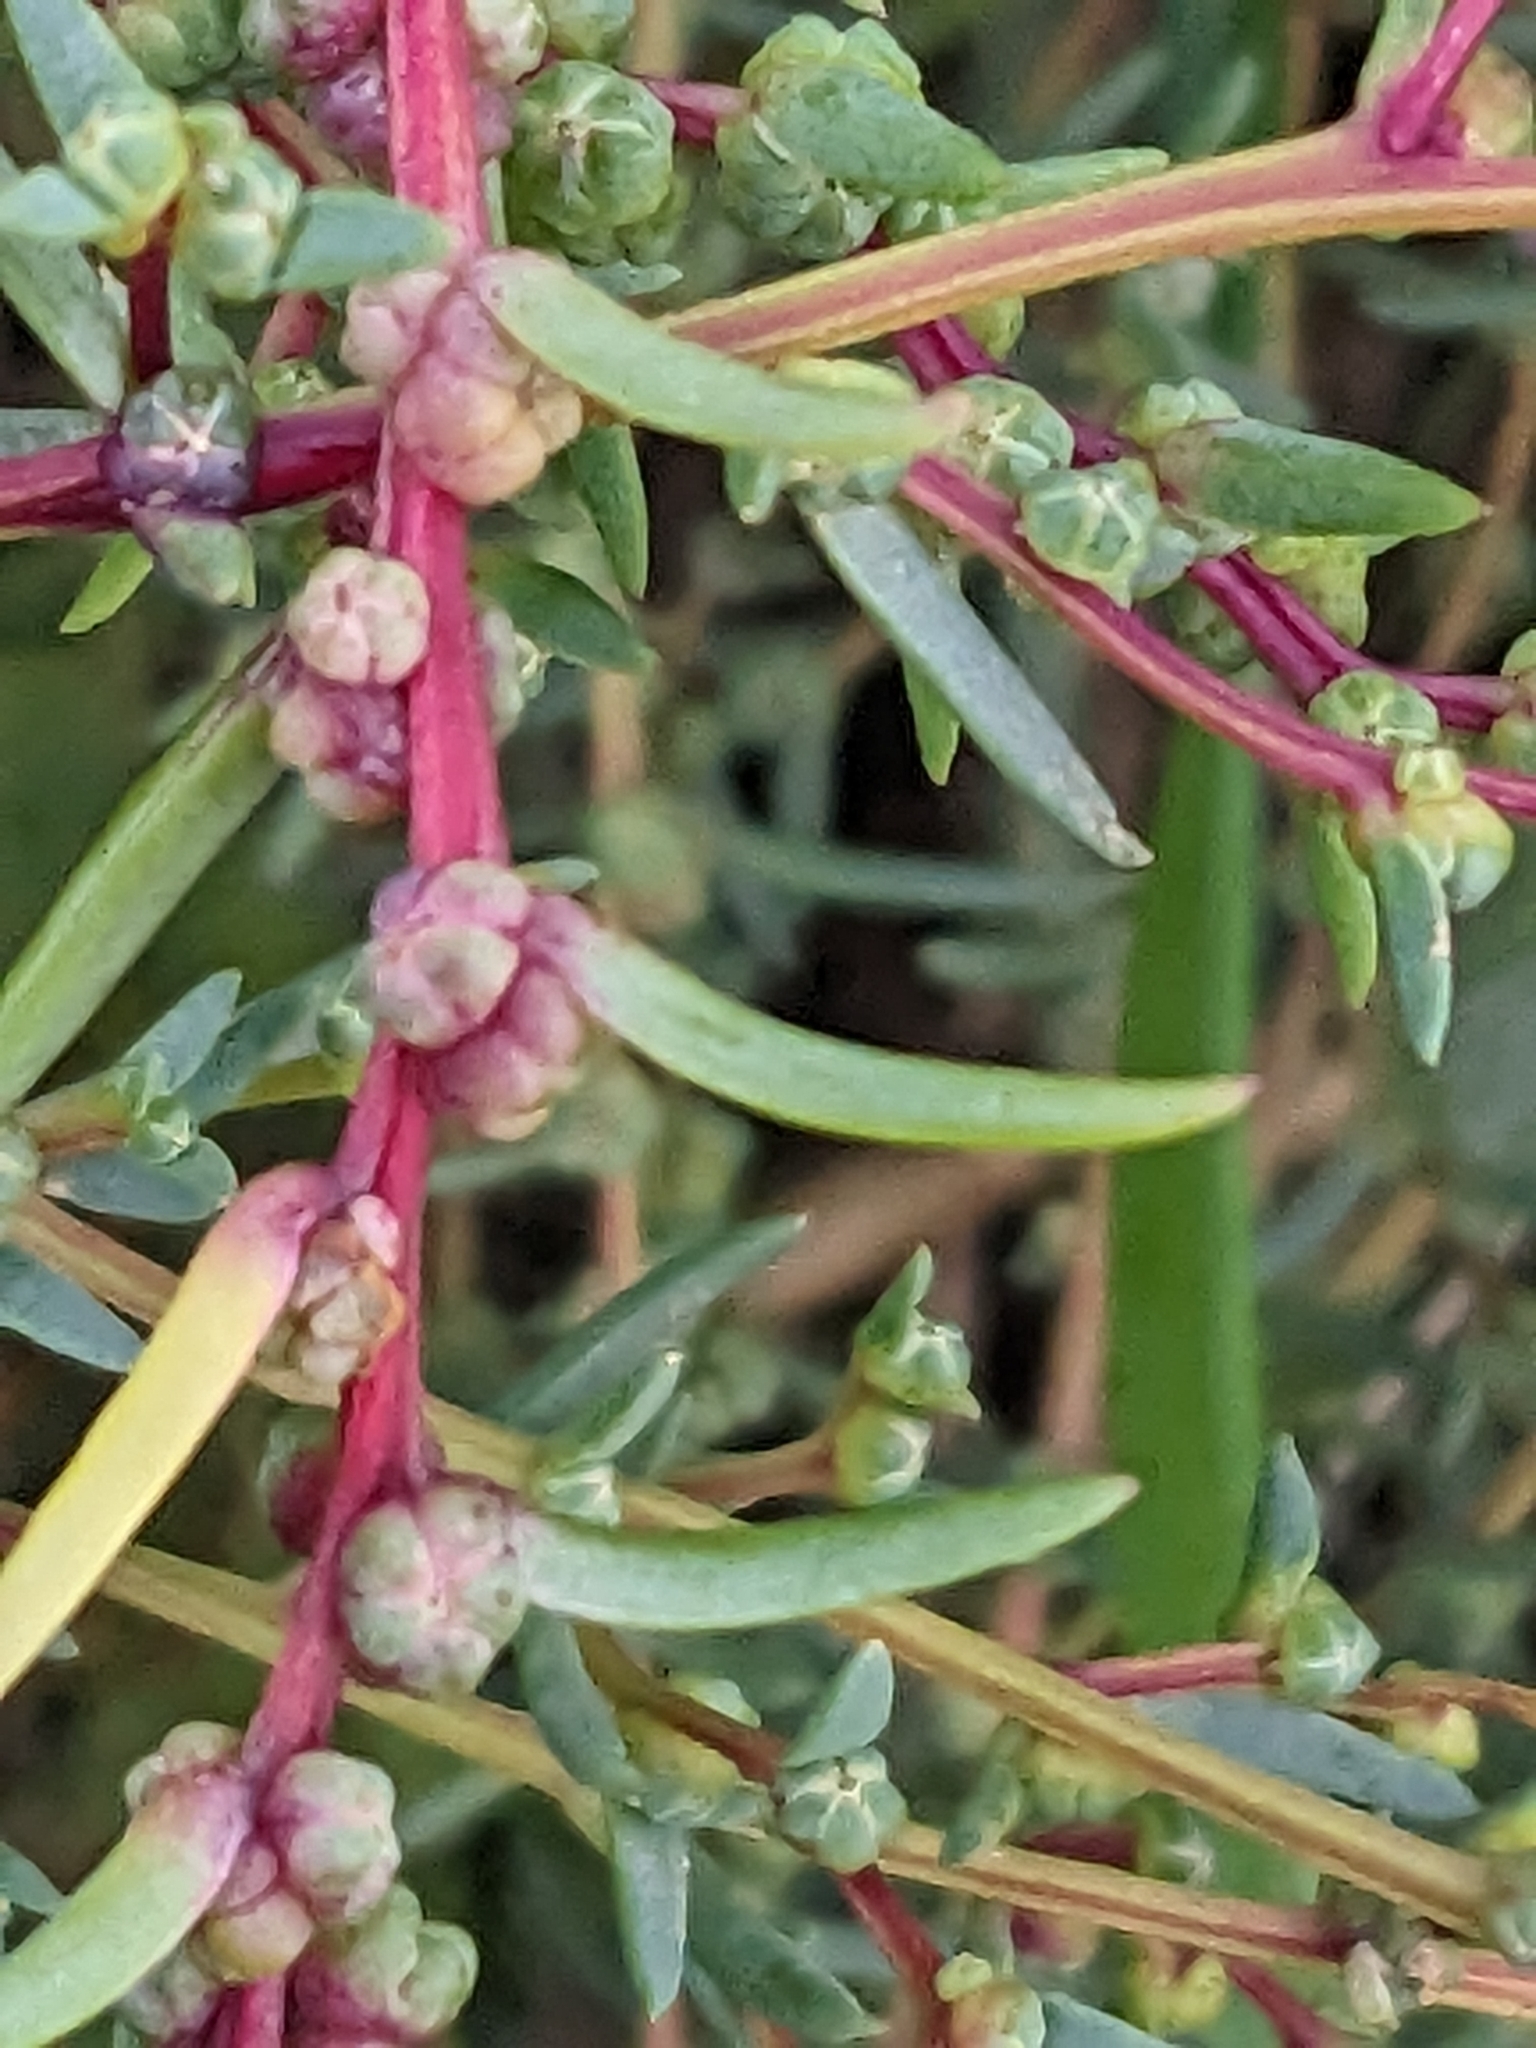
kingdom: Plantae
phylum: Tracheophyta
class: Magnoliopsida
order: Caryophyllales
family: Amaranthaceae
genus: Suaeda
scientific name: Suaeda maritima
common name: Annual sea-blite
